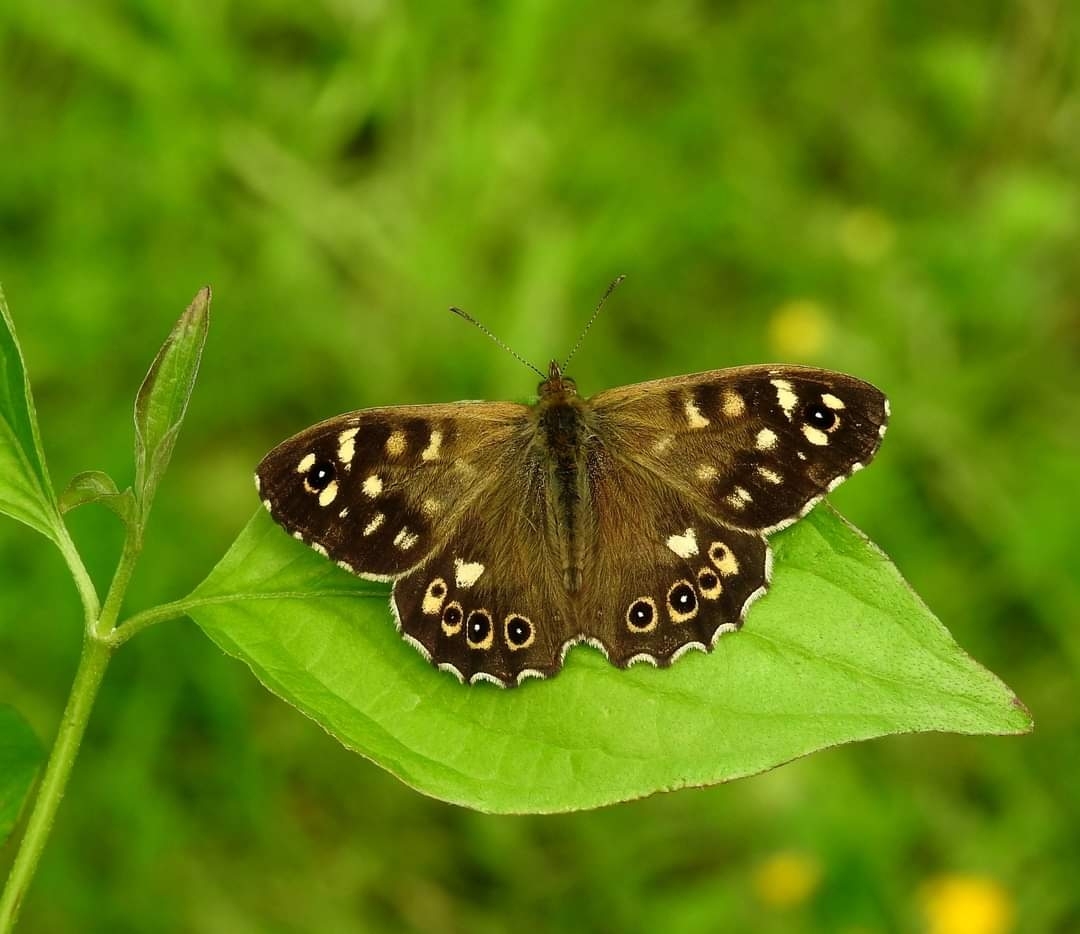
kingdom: Animalia
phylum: Arthropoda
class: Insecta
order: Lepidoptera
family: Nymphalidae
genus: Pararge
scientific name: Pararge aegeria
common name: Speckled wood
